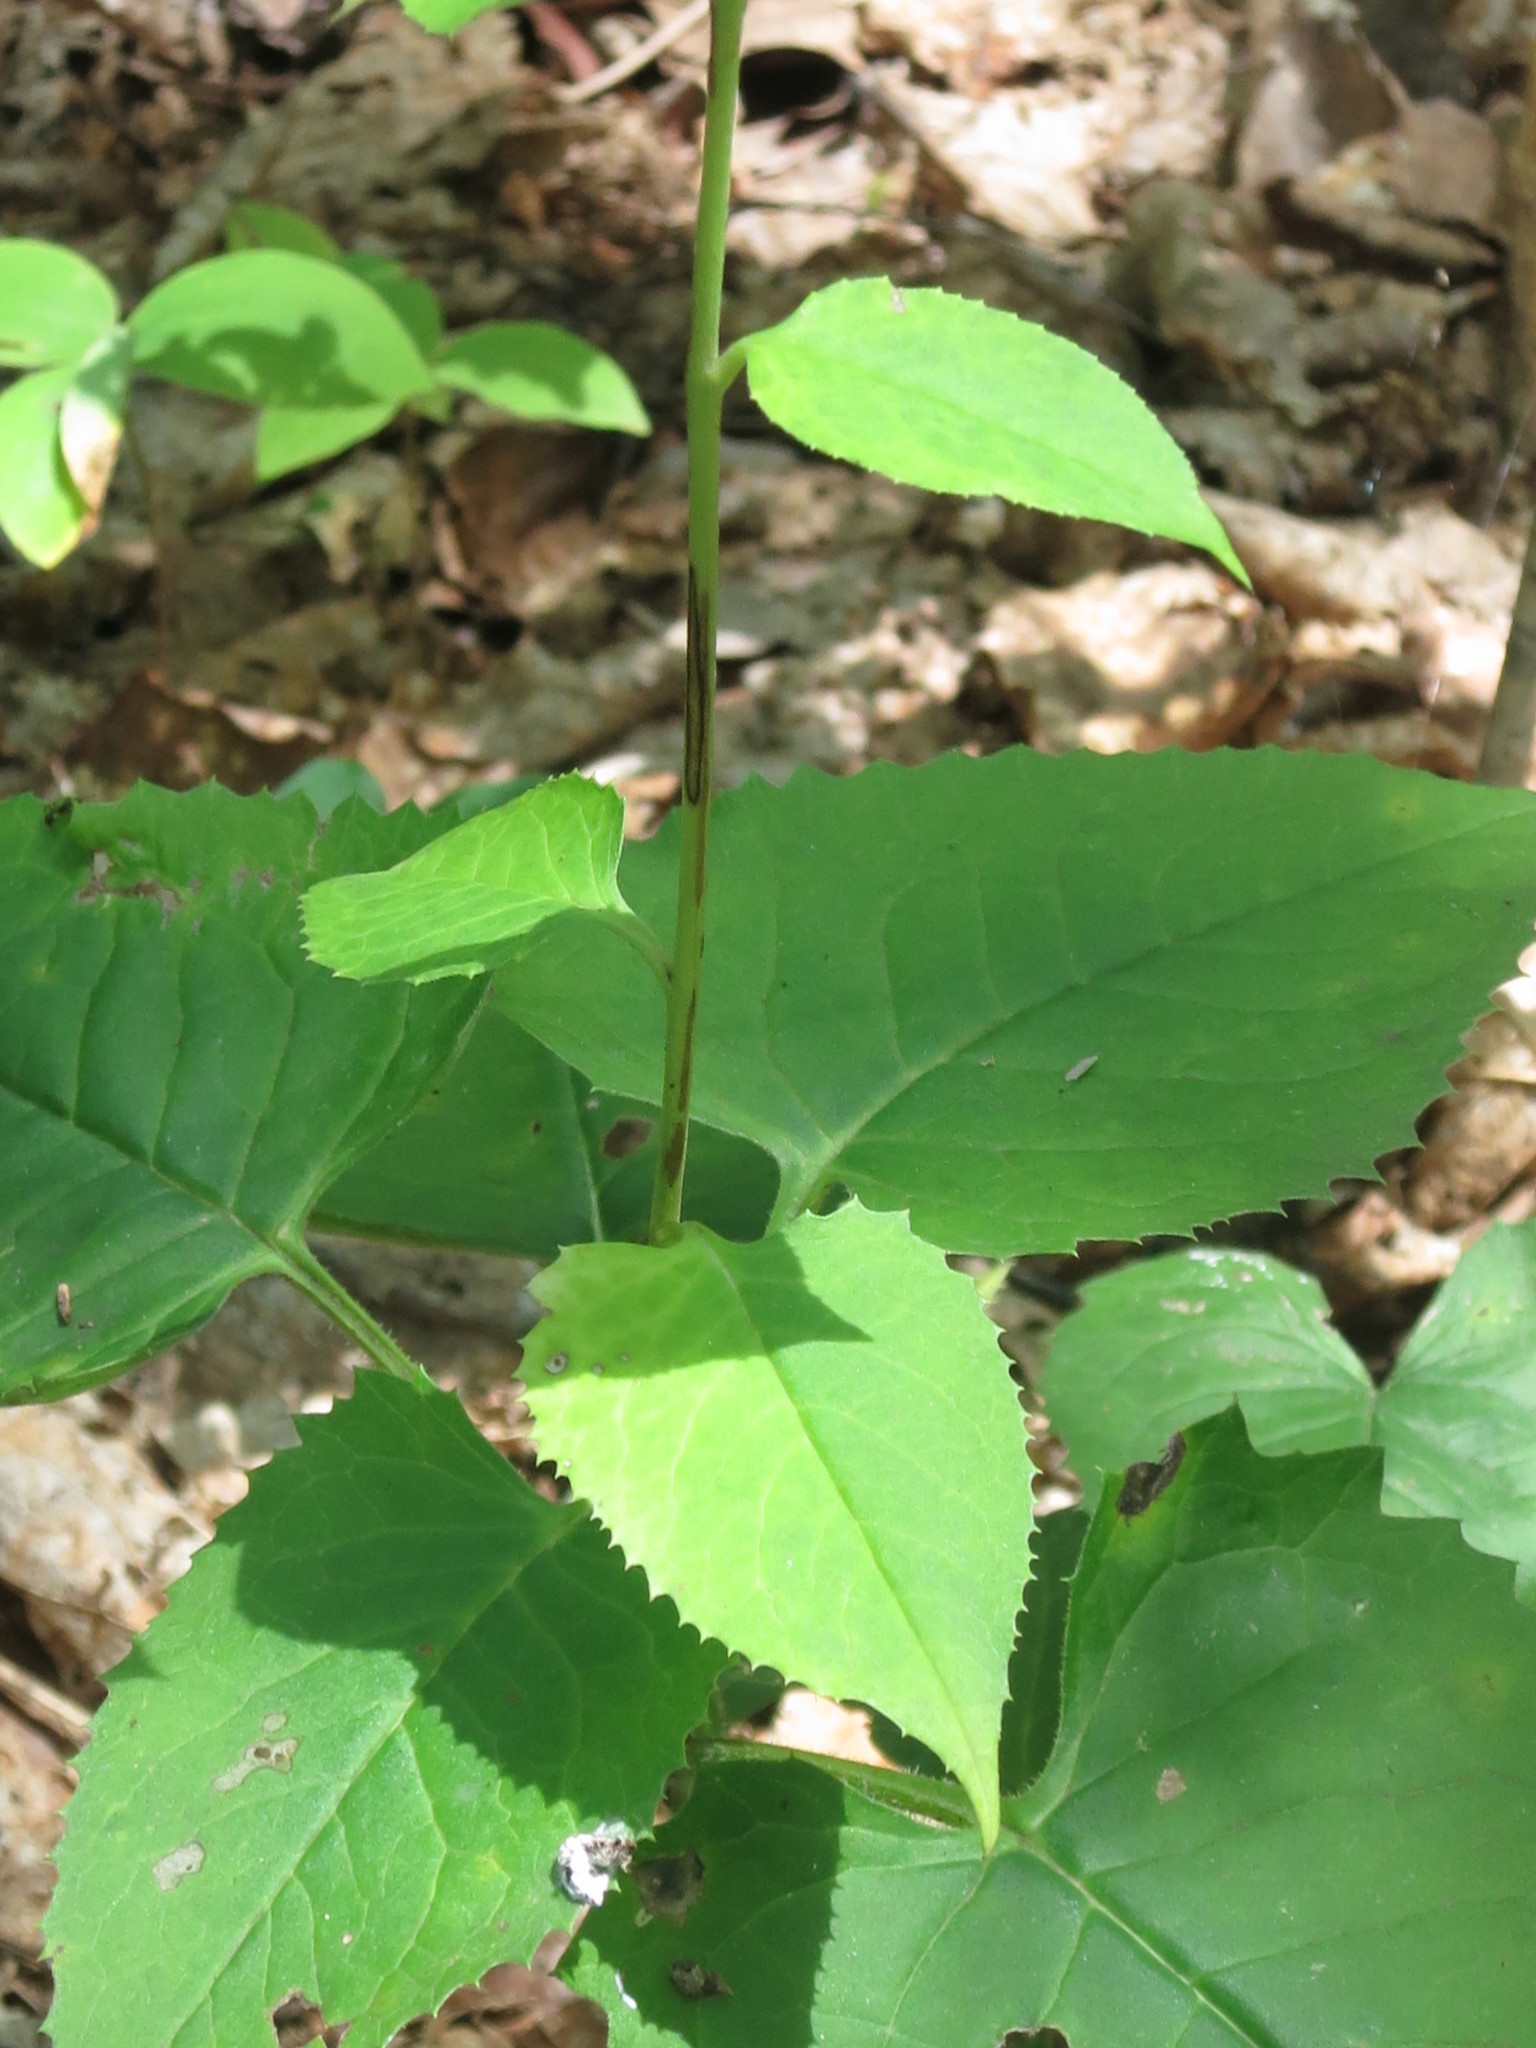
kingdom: Plantae
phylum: Tracheophyta
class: Magnoliopsida
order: Asterales
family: Asteraceae
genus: Saussurea
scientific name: Saussurea grandifolia
